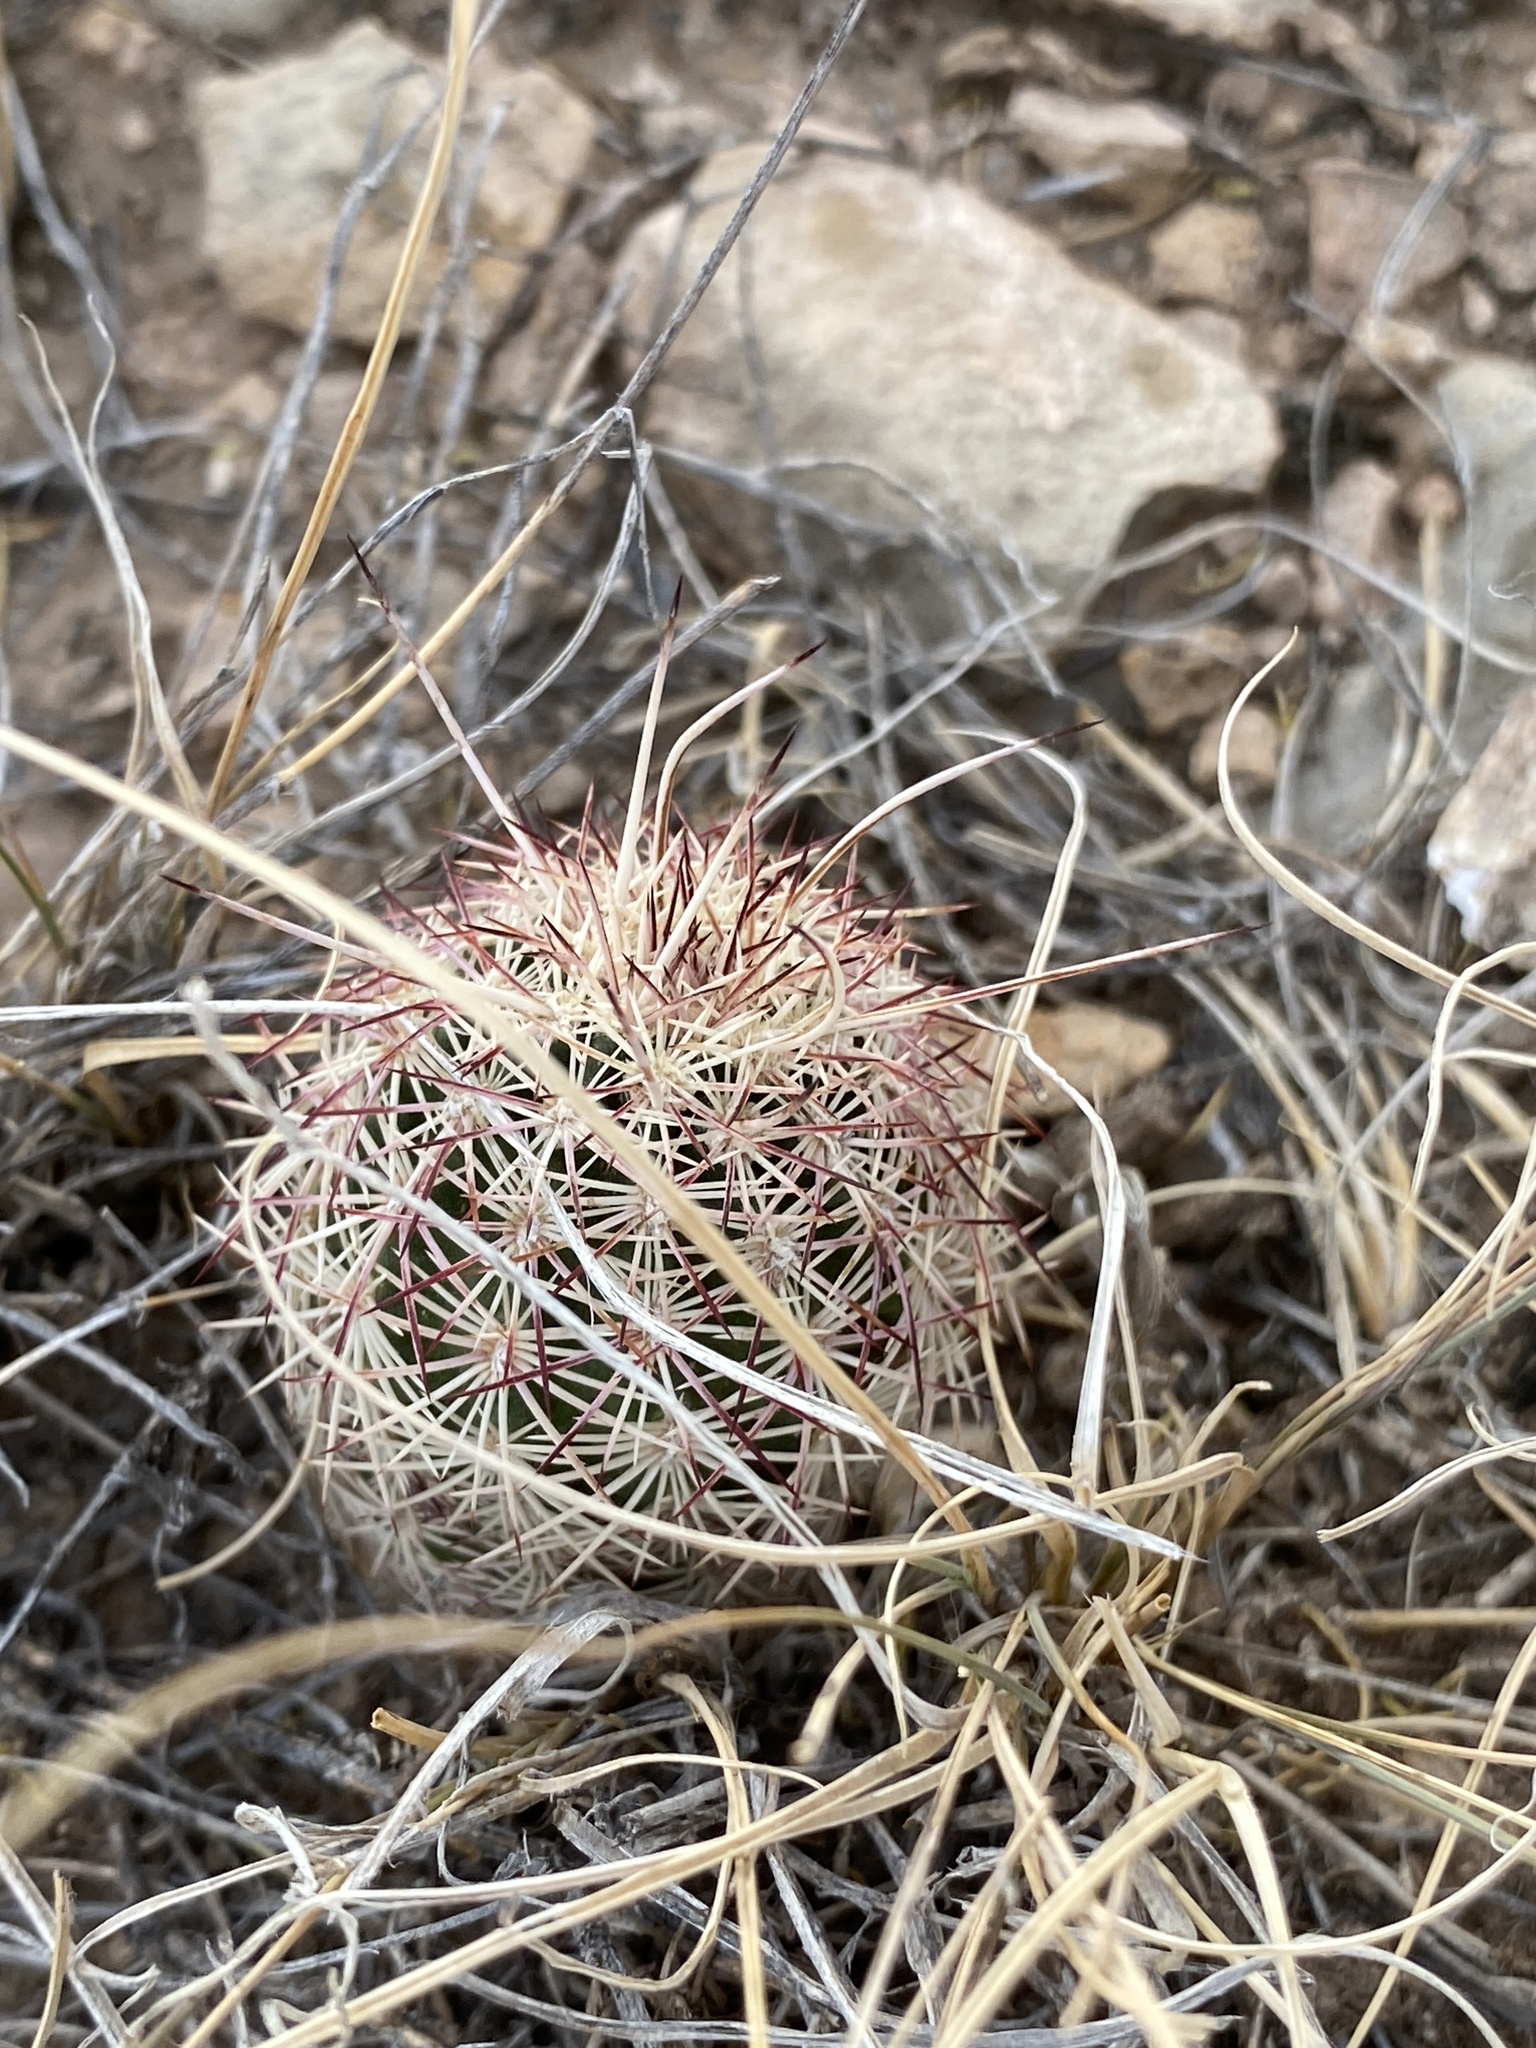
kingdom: Plantae
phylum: Tracheophyta
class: Magnoliopsida
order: Caryophyllales
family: Cactaceae
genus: Echinocereus
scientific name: Echinocereus viridiflorus
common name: Nylon hedgehog cactus
